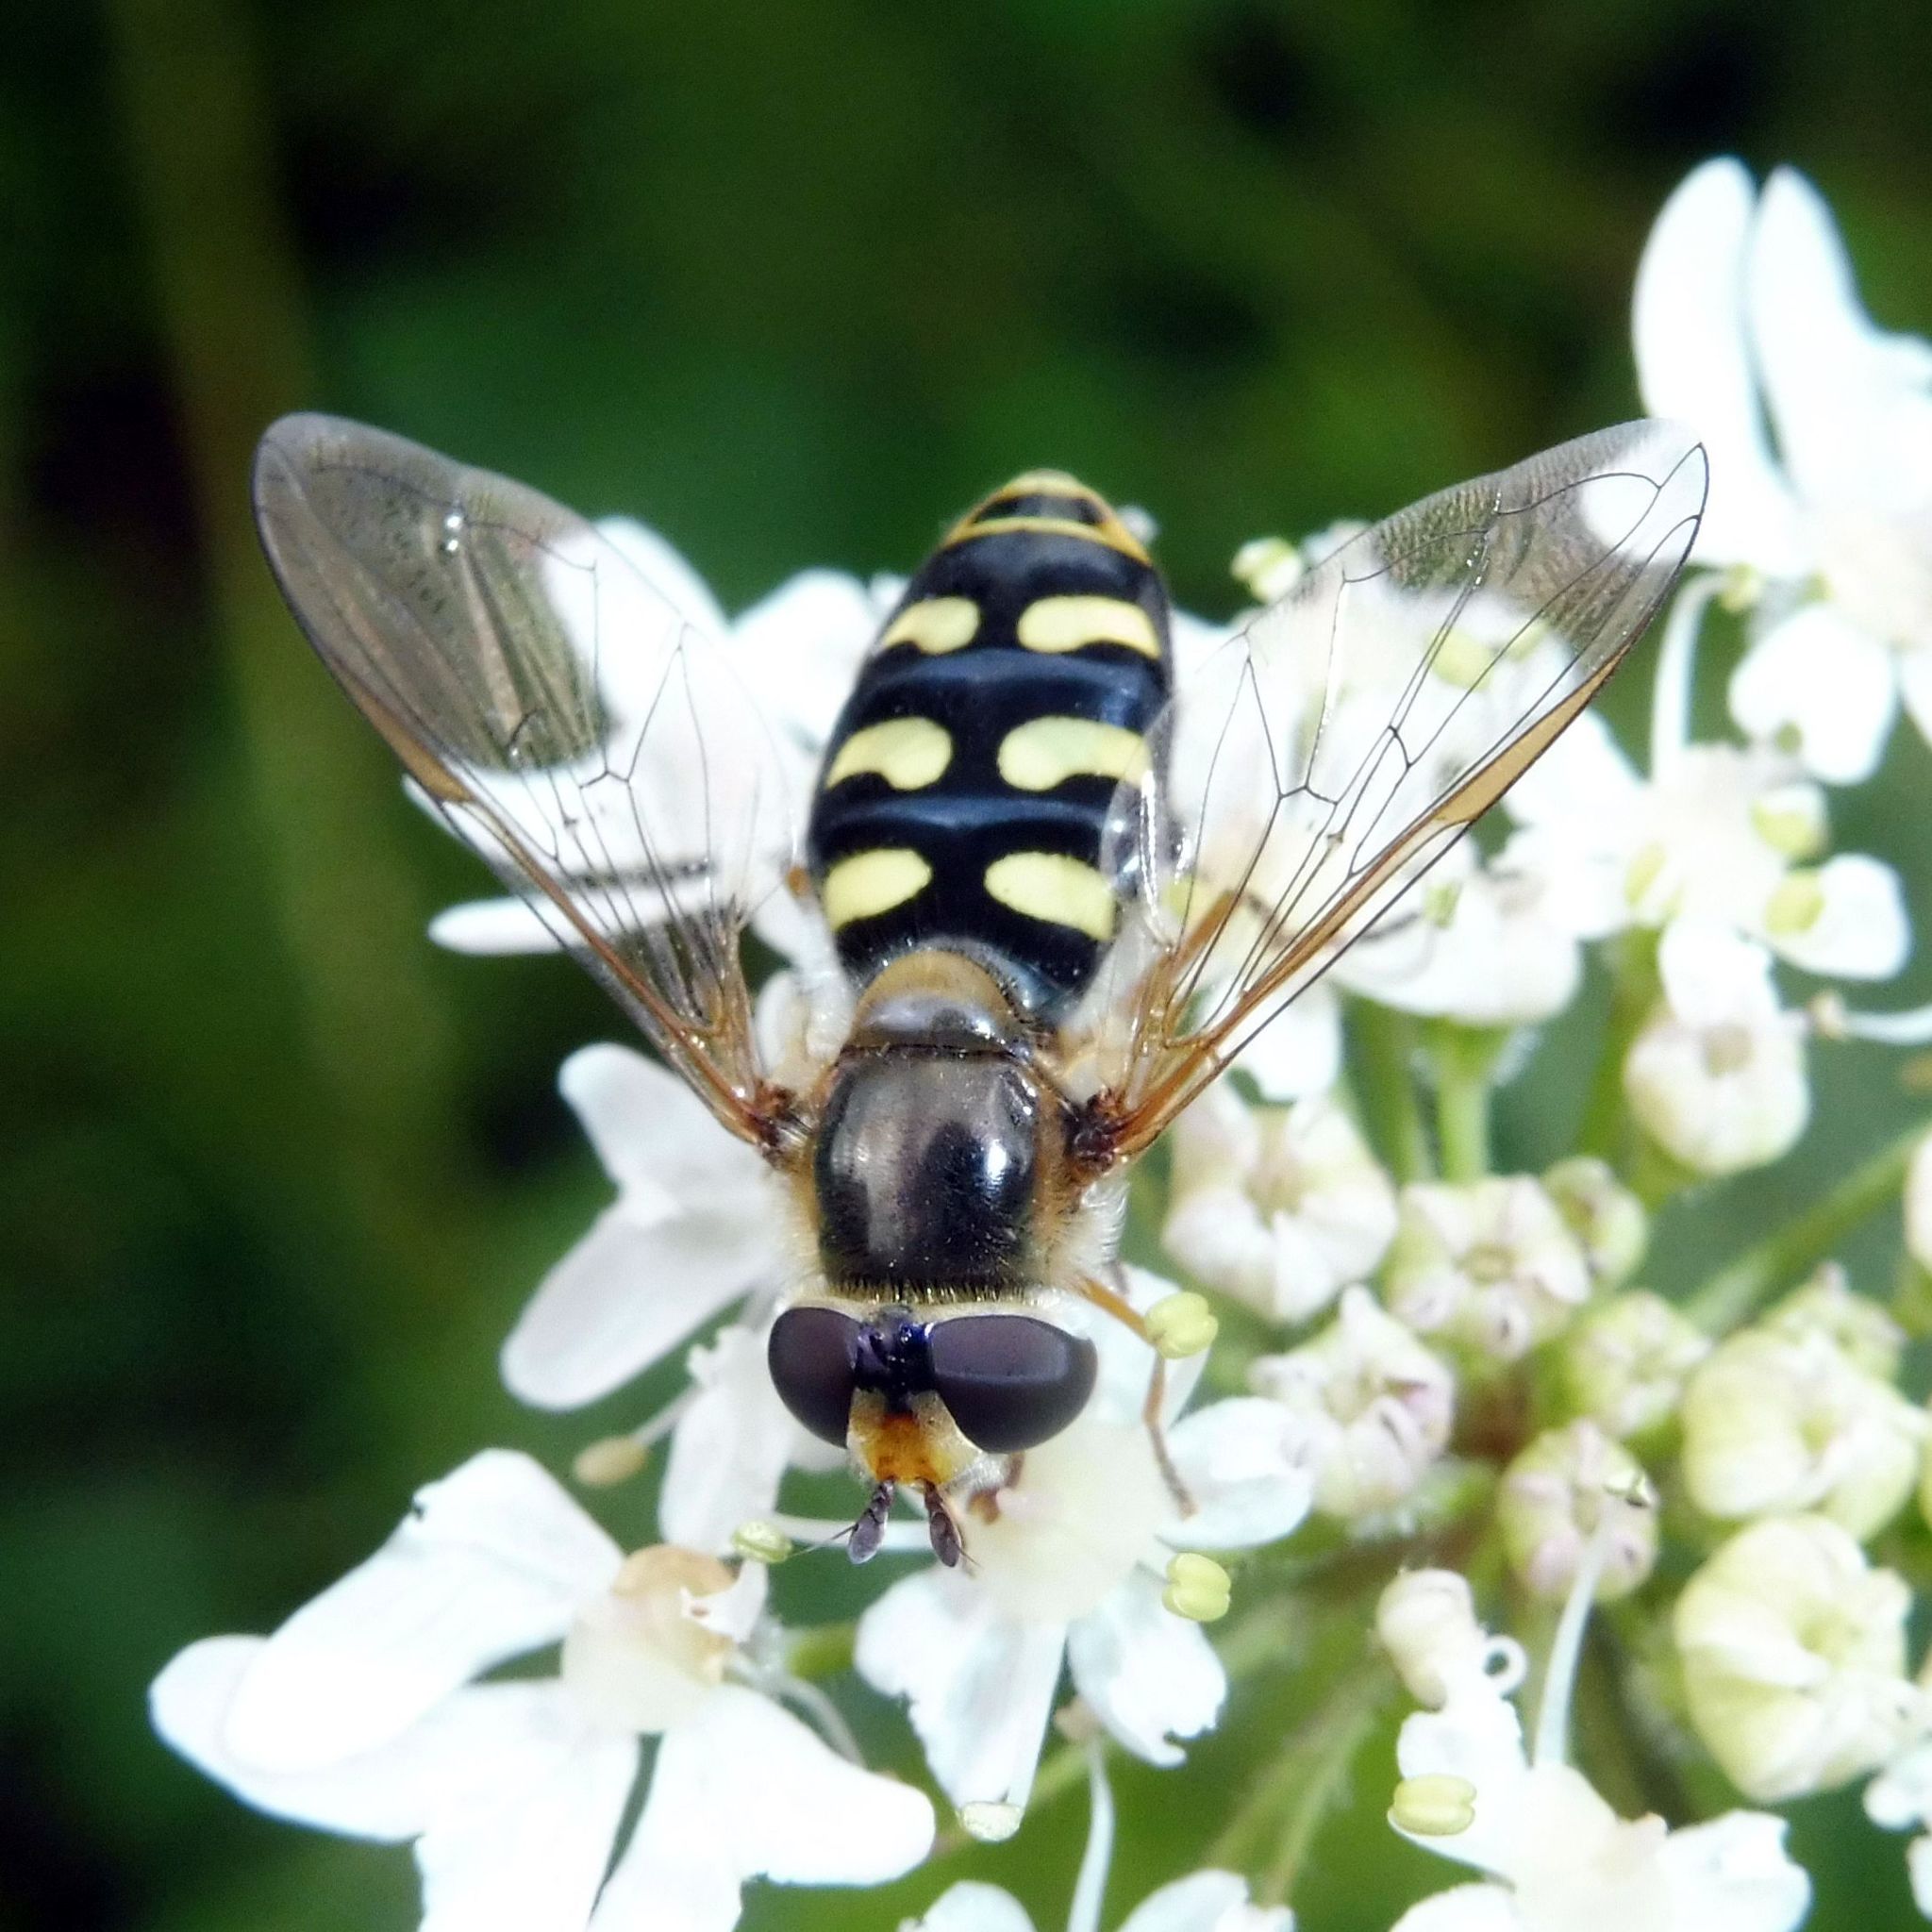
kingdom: Animalia
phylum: Arthropoda
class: Insecta
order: Diptera
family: Syrphidae
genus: Eupeodes
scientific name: Eupeodes luniger
